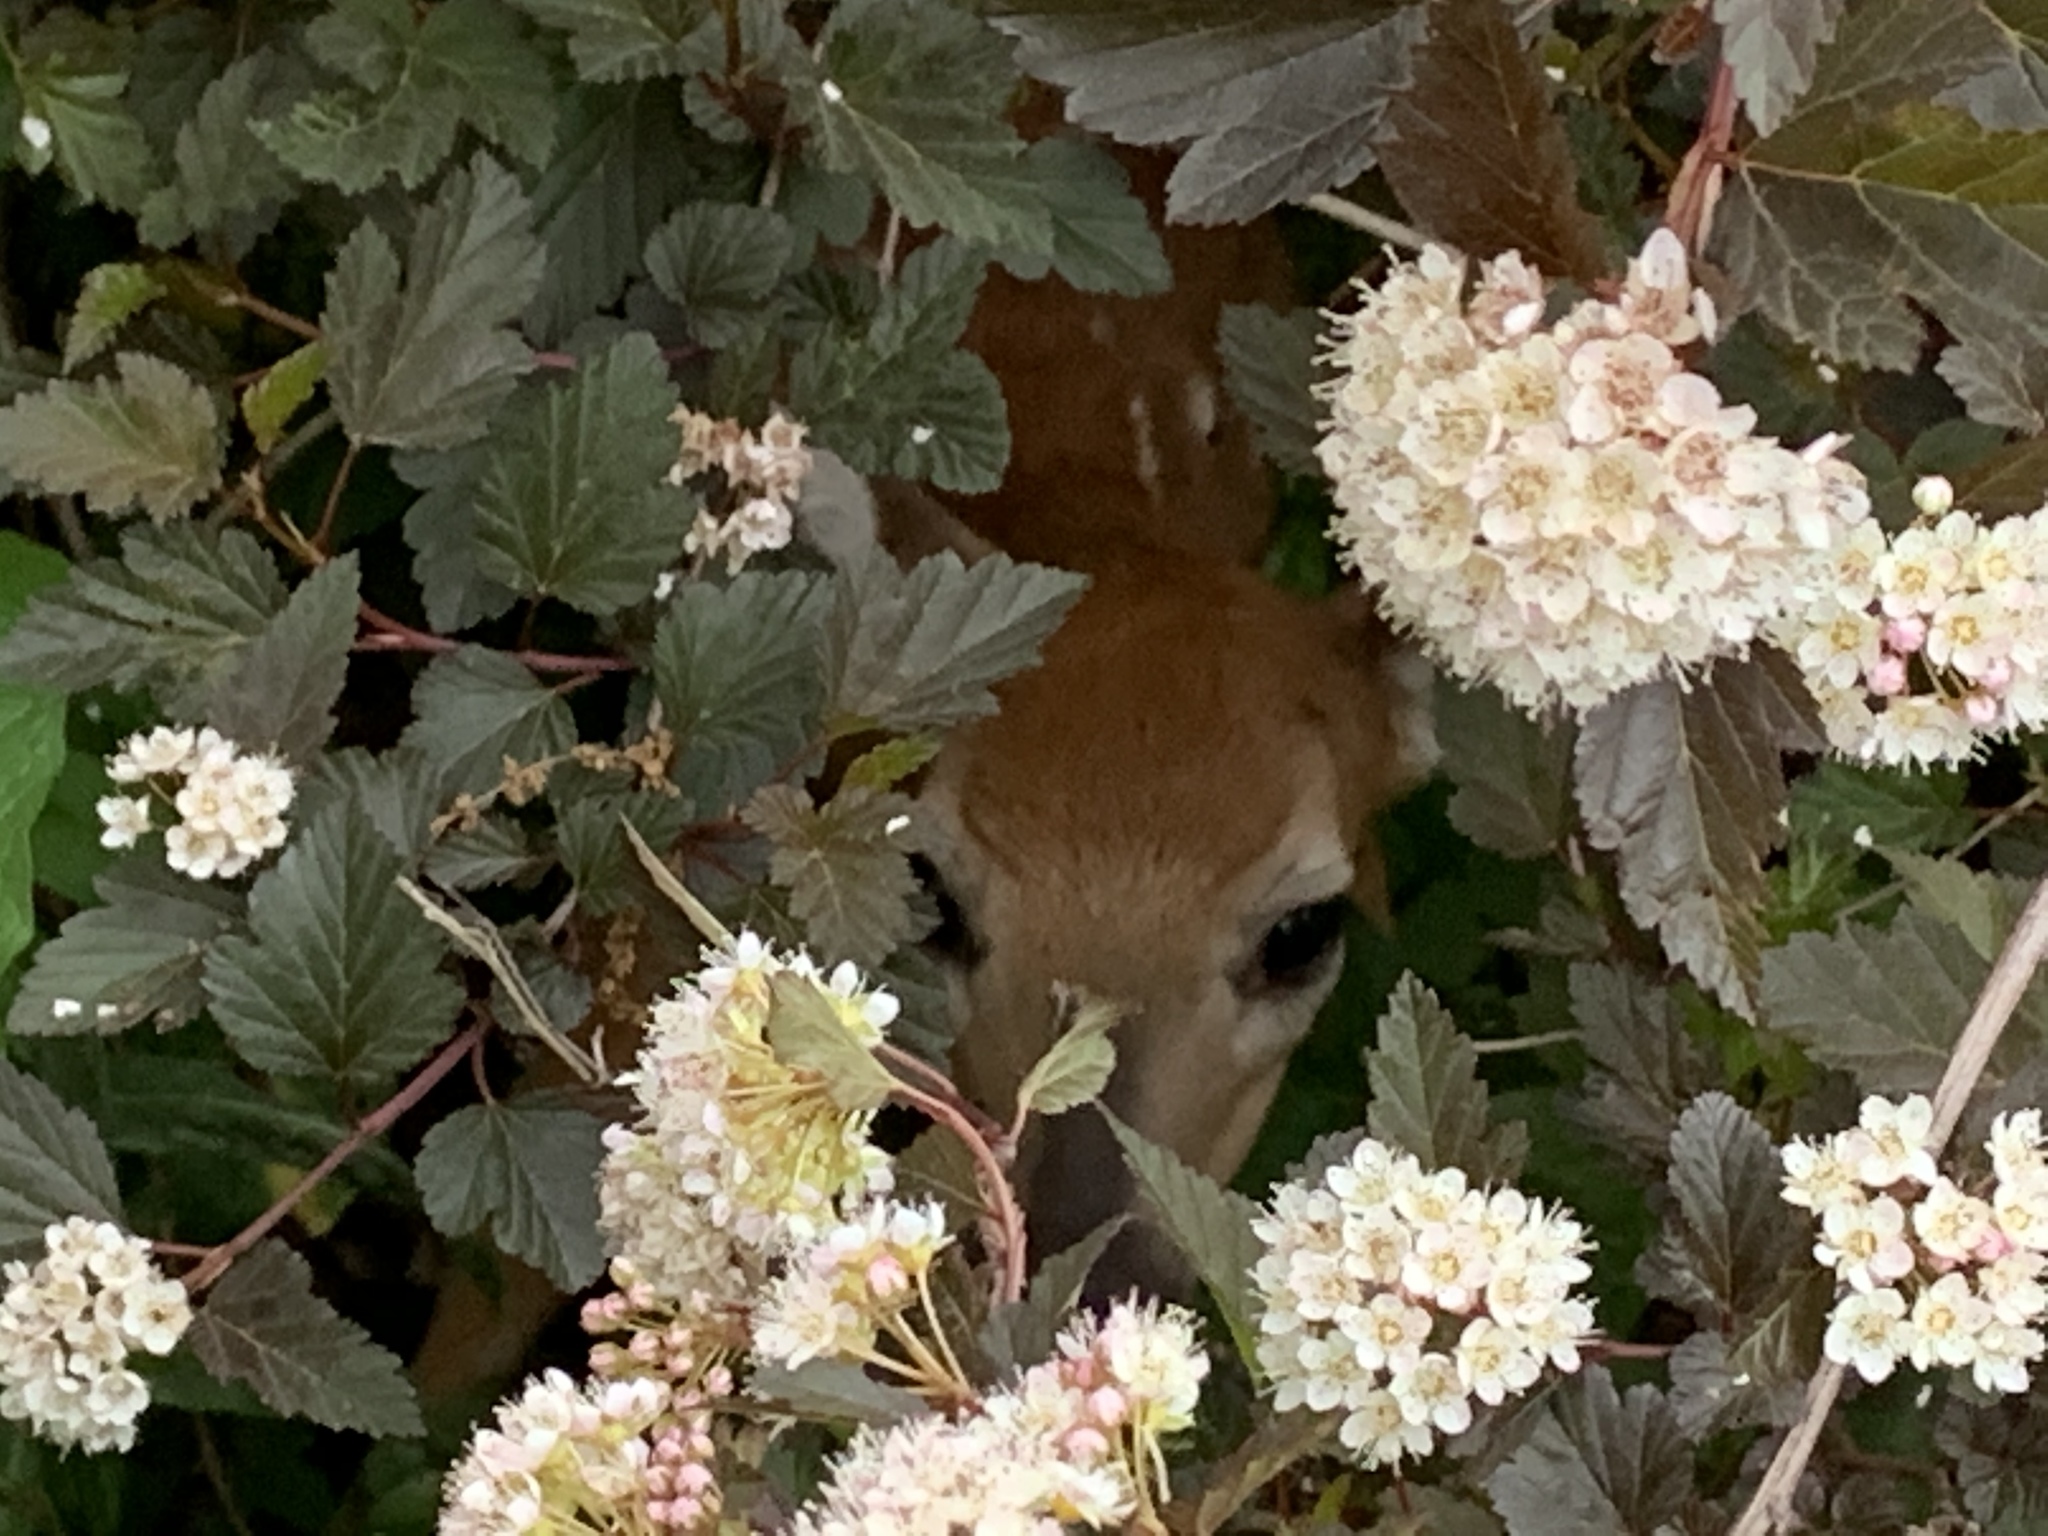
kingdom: Animalia
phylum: Chordata
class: Mammalia
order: Artiodactyla
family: Cervidae
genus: Odocoileus
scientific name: Odocoileus virginianus
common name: White-tailed deer
